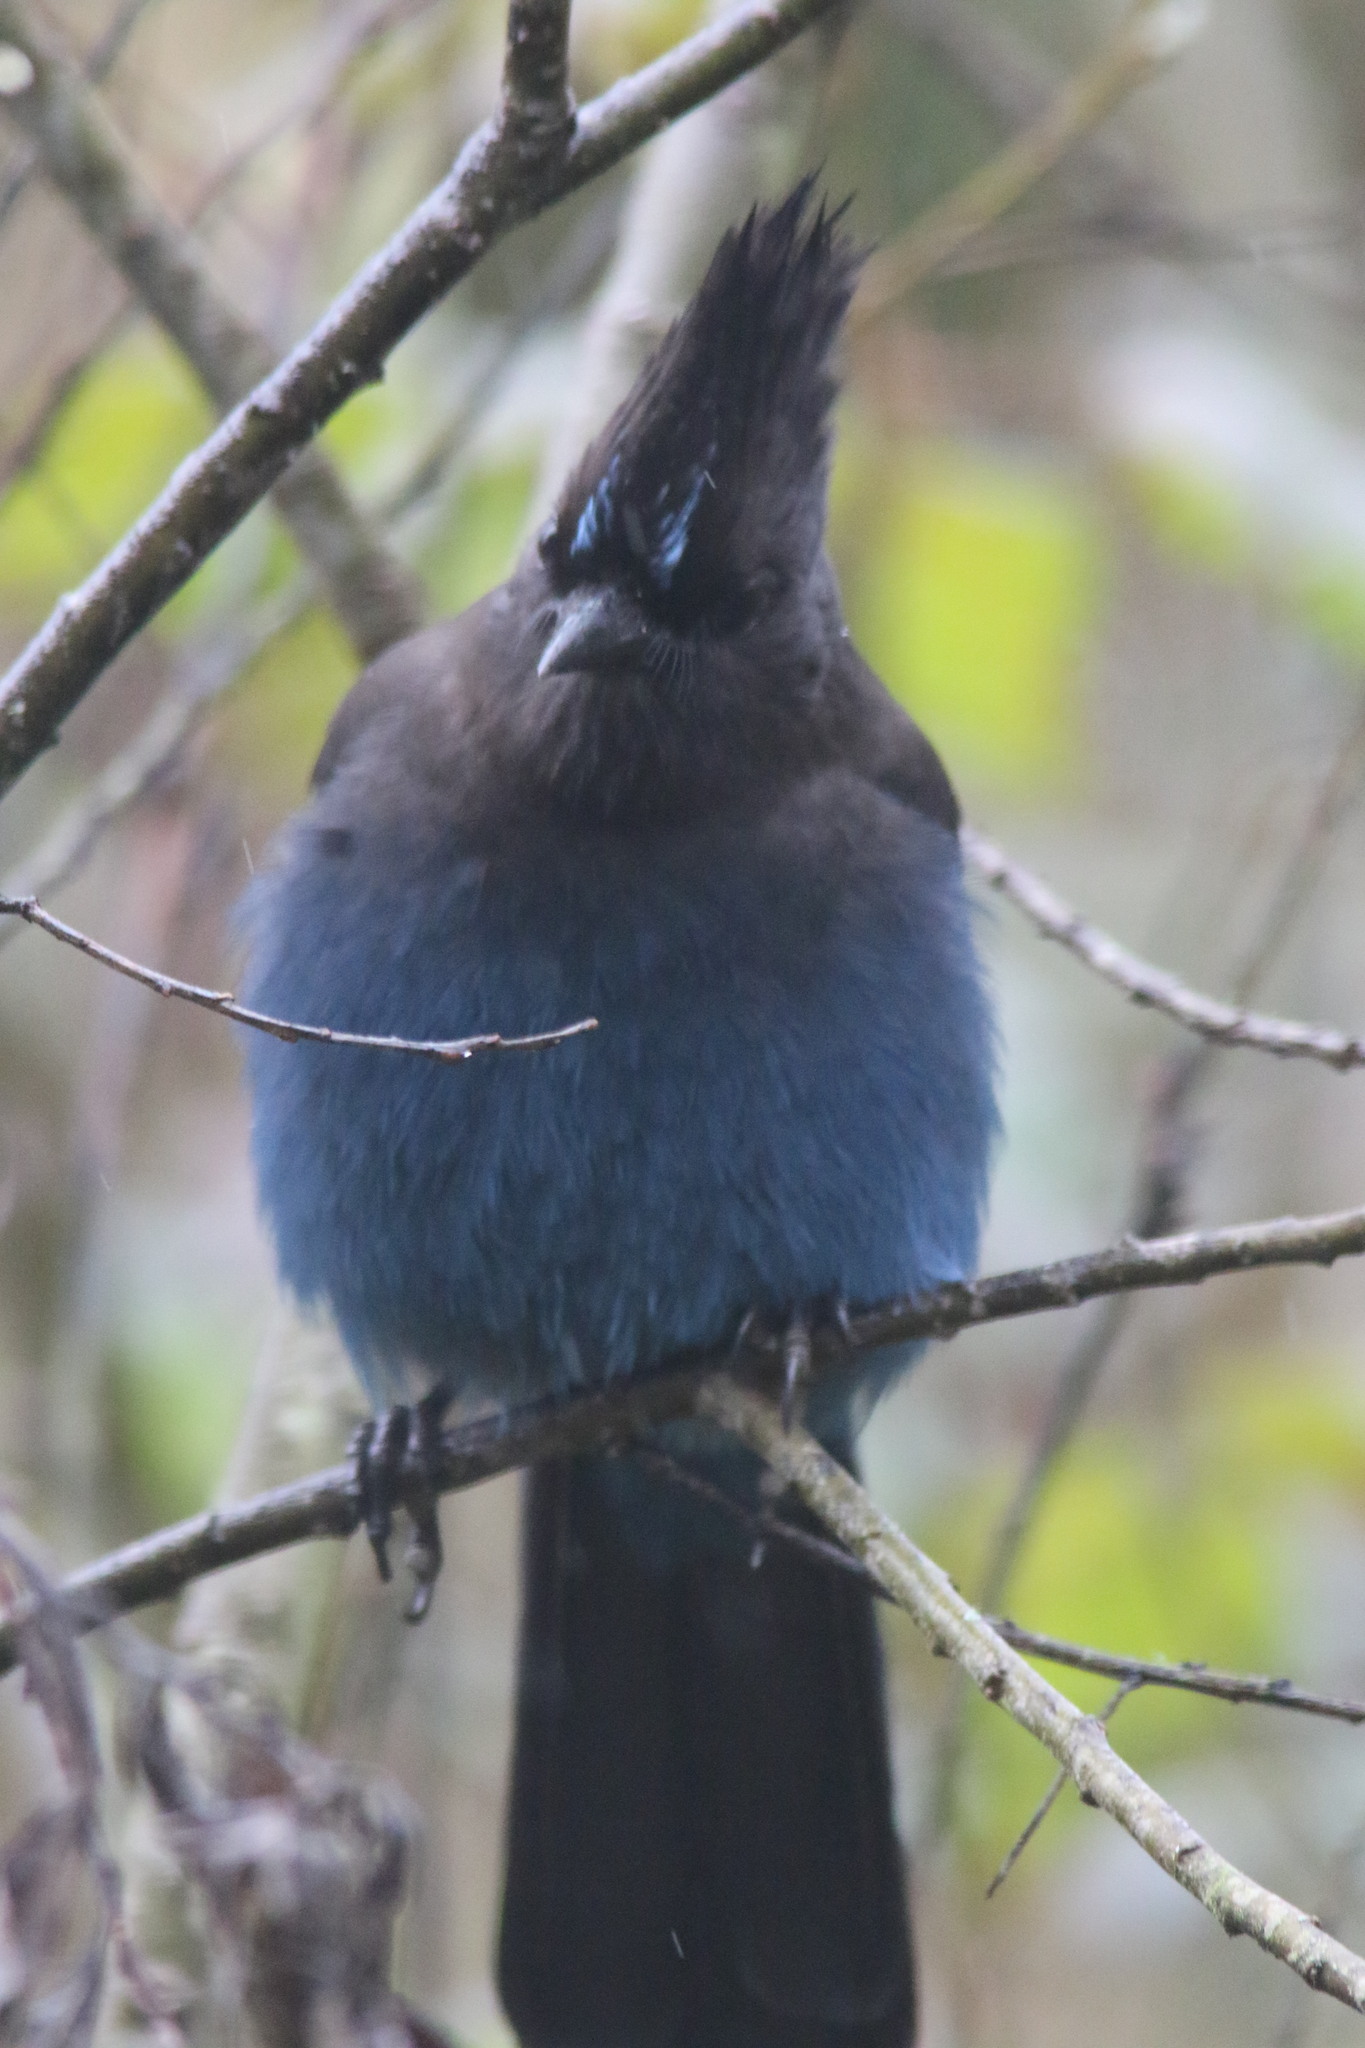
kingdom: Animalia
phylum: Chordata
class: Aves
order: Passeriformes
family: Corvidae
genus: Cyanocitta
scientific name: Cyanocitta stelleri
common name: Steller's jay
